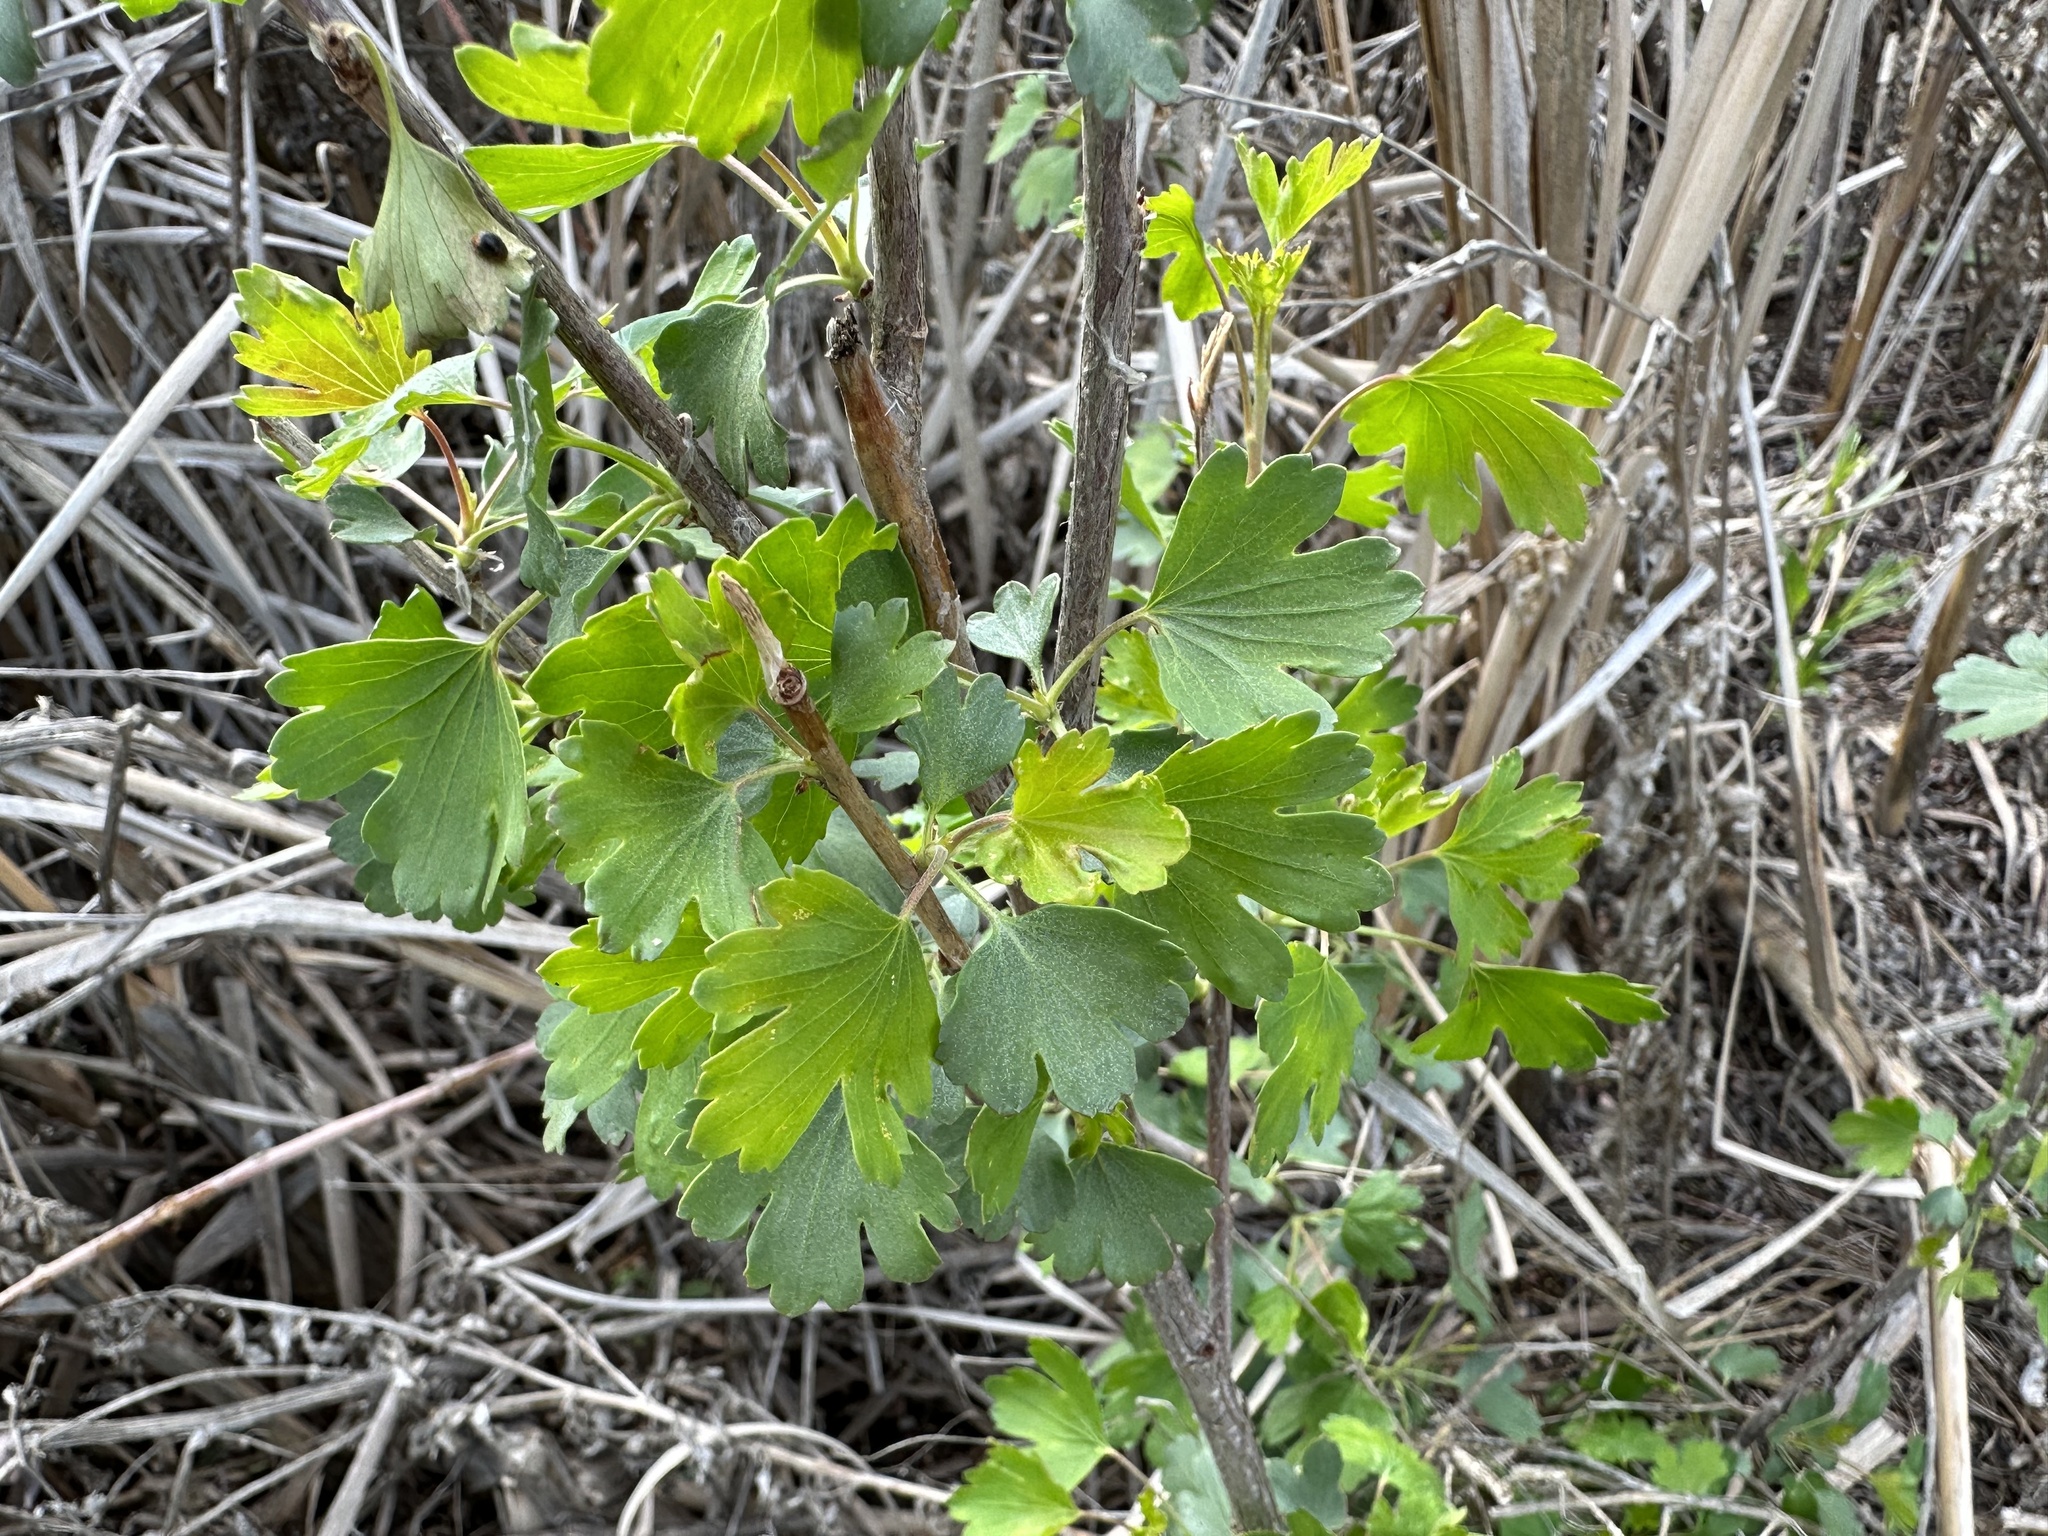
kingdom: Plantae
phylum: Tracheophyta
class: Magnoliopsida
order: Saxifragales
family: Grossulariaceae
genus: Ribes
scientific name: Ribes aureum
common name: Golden currant
